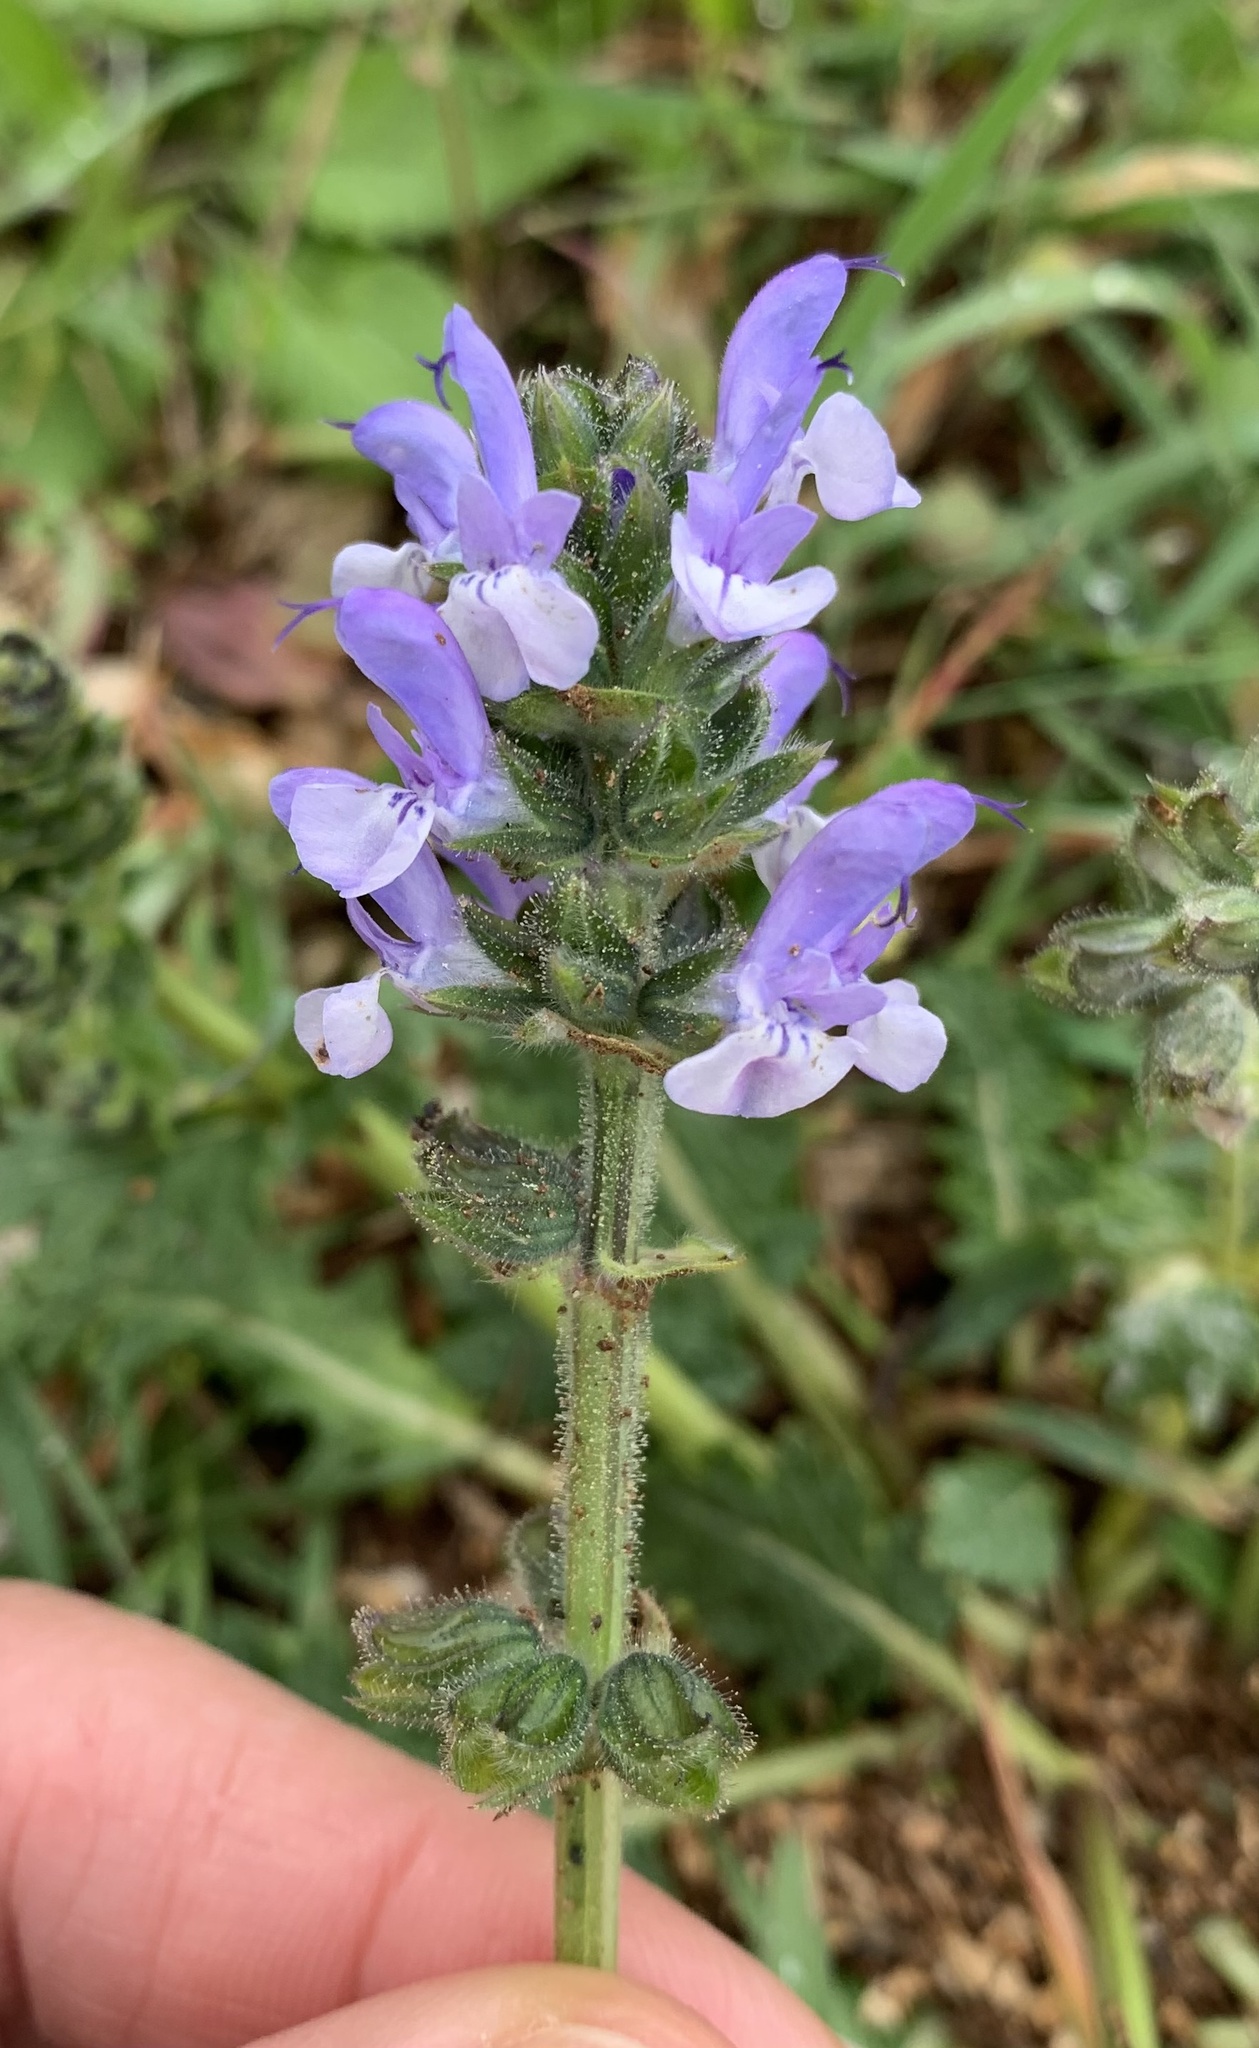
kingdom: Plantae
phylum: Tracheophyta
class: Magnoliopsida
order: Lamiales
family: Lamiaceae
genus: Salvia
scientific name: Salvia verbenaca
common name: Wild clary
